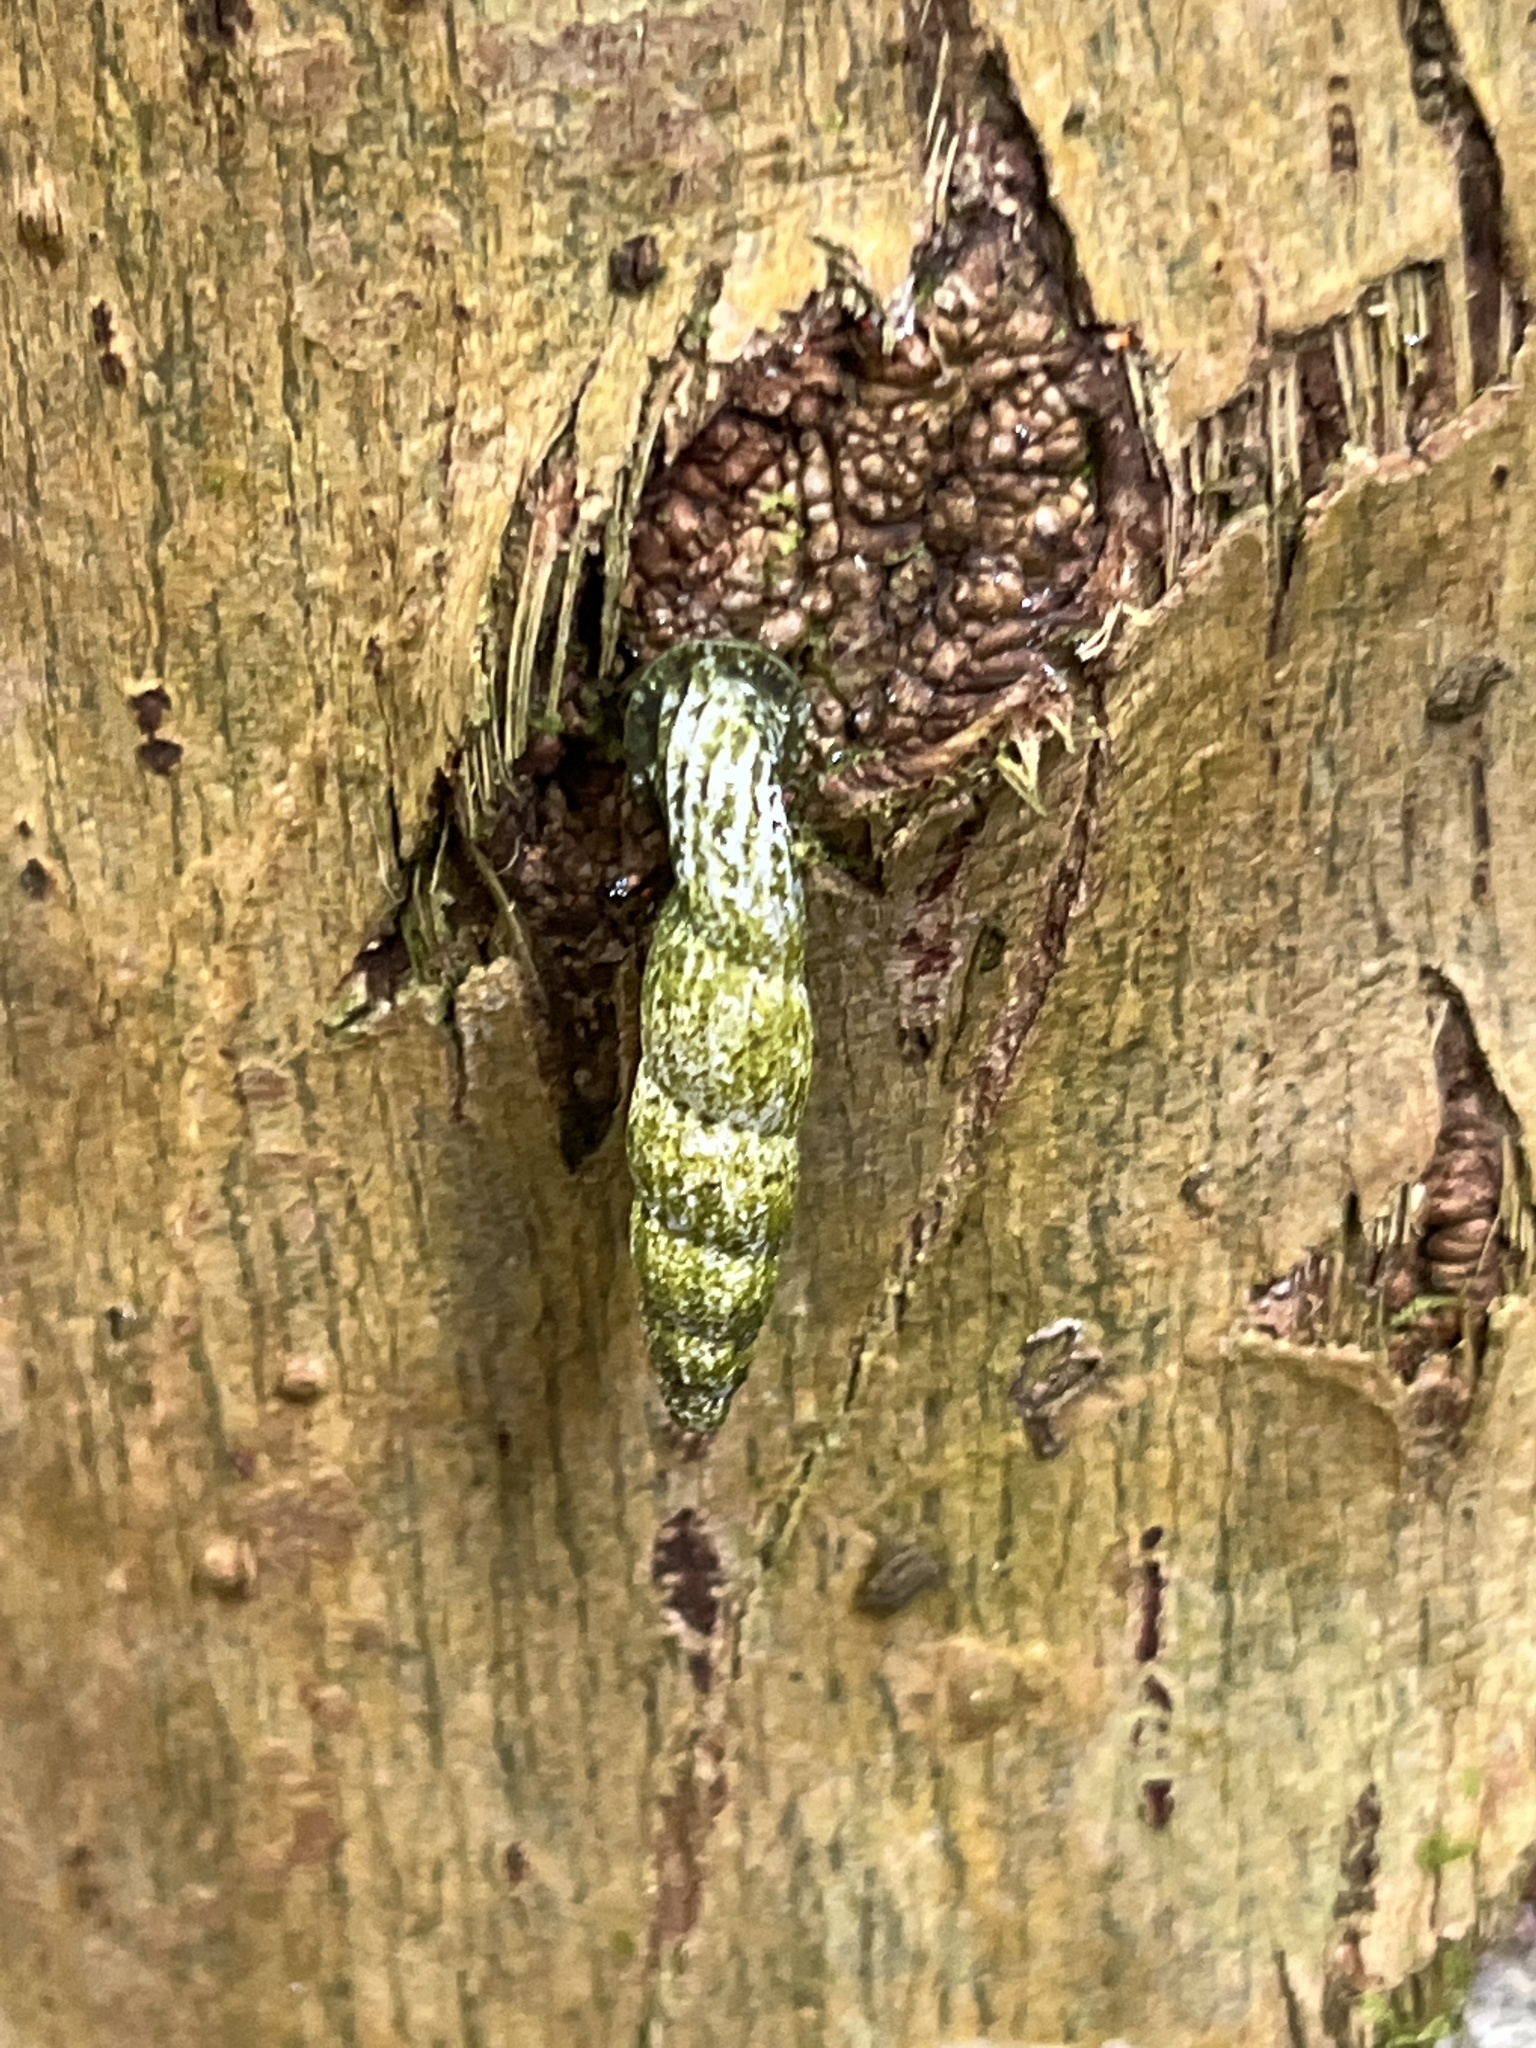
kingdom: Animalia
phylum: Mollusca
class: Gastropoda
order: Stylommatophora
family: Clausiliidae
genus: Nenia
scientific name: Nenia tridens
